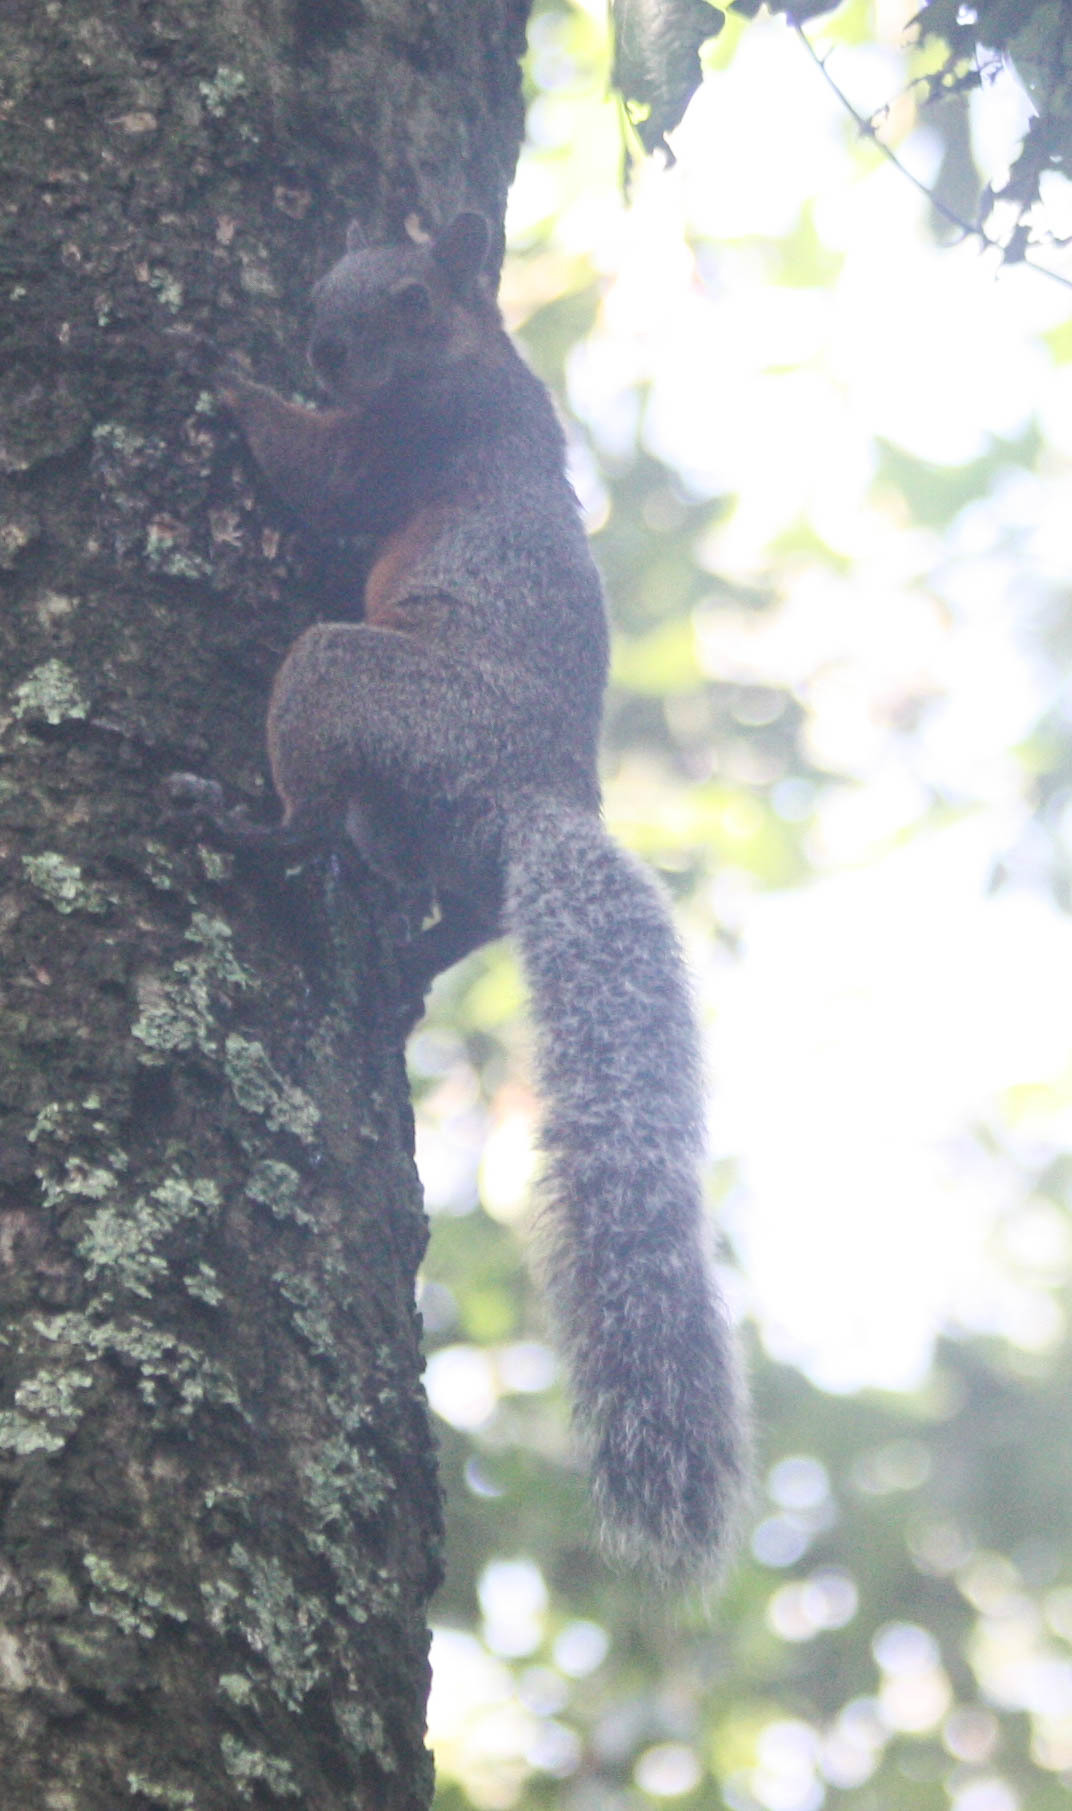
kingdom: Animalia
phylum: Chordata
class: Mammalia
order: Rodentia
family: Sciuridae
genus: Sciurus
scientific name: Sciurus aureogaster
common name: Red-bellied squirrel
